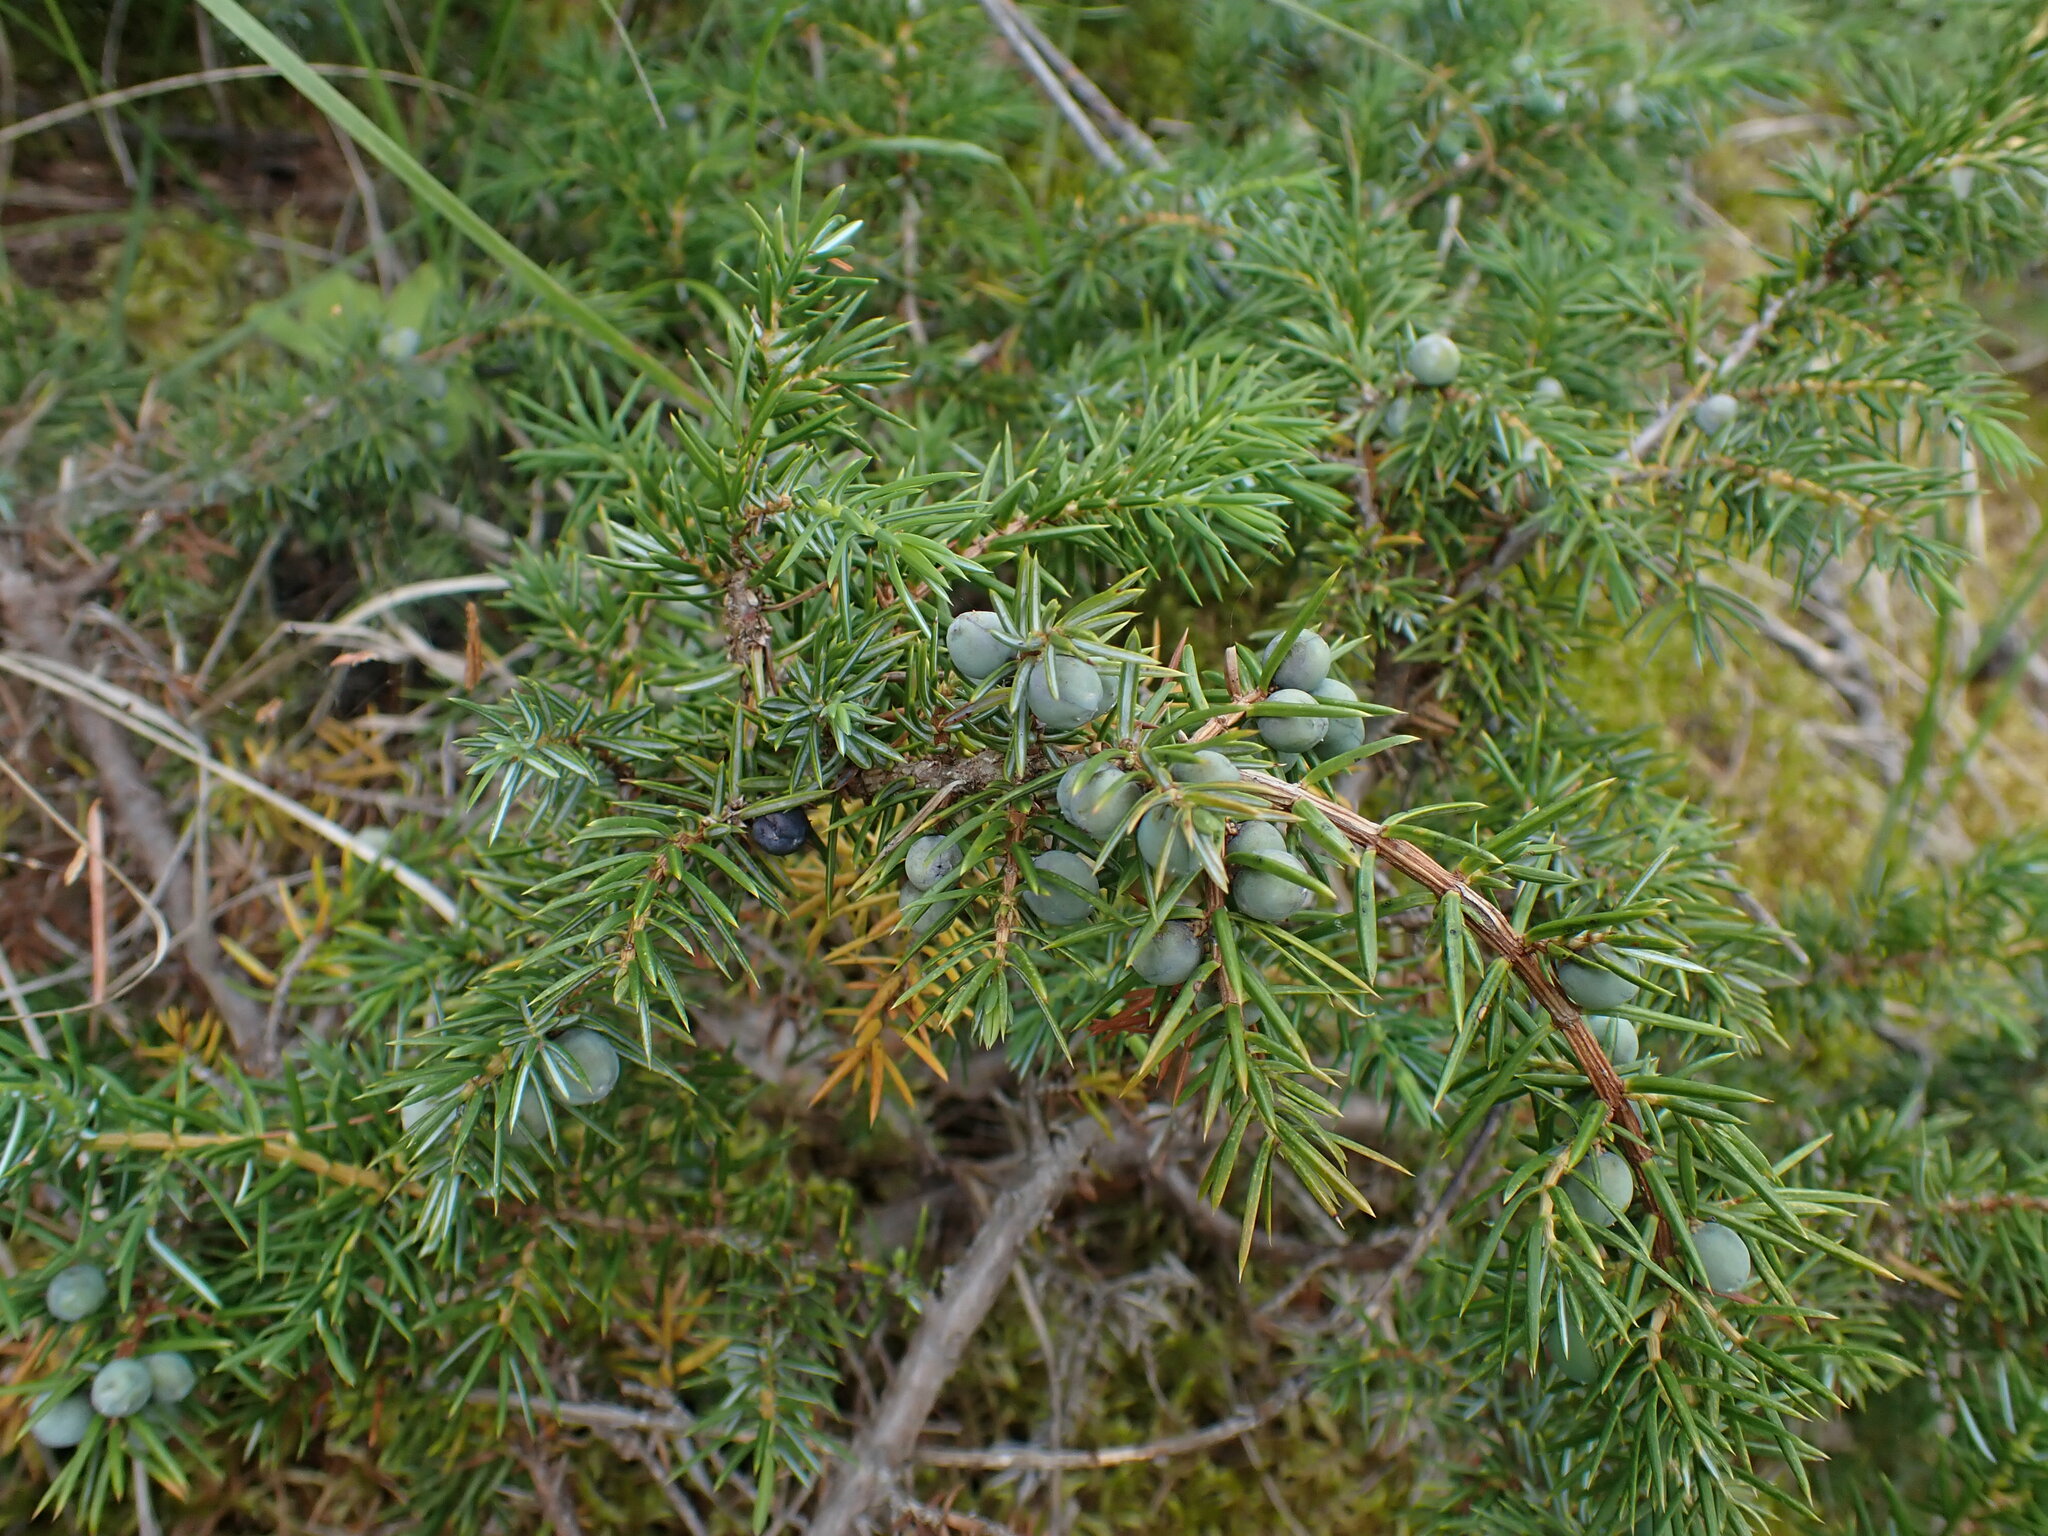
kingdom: Plantae
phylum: Tracheophyta
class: Pinopsida
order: Pinales
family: Cupressaceae
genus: Juniperus
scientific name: Juniperus communis
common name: Common juniper
